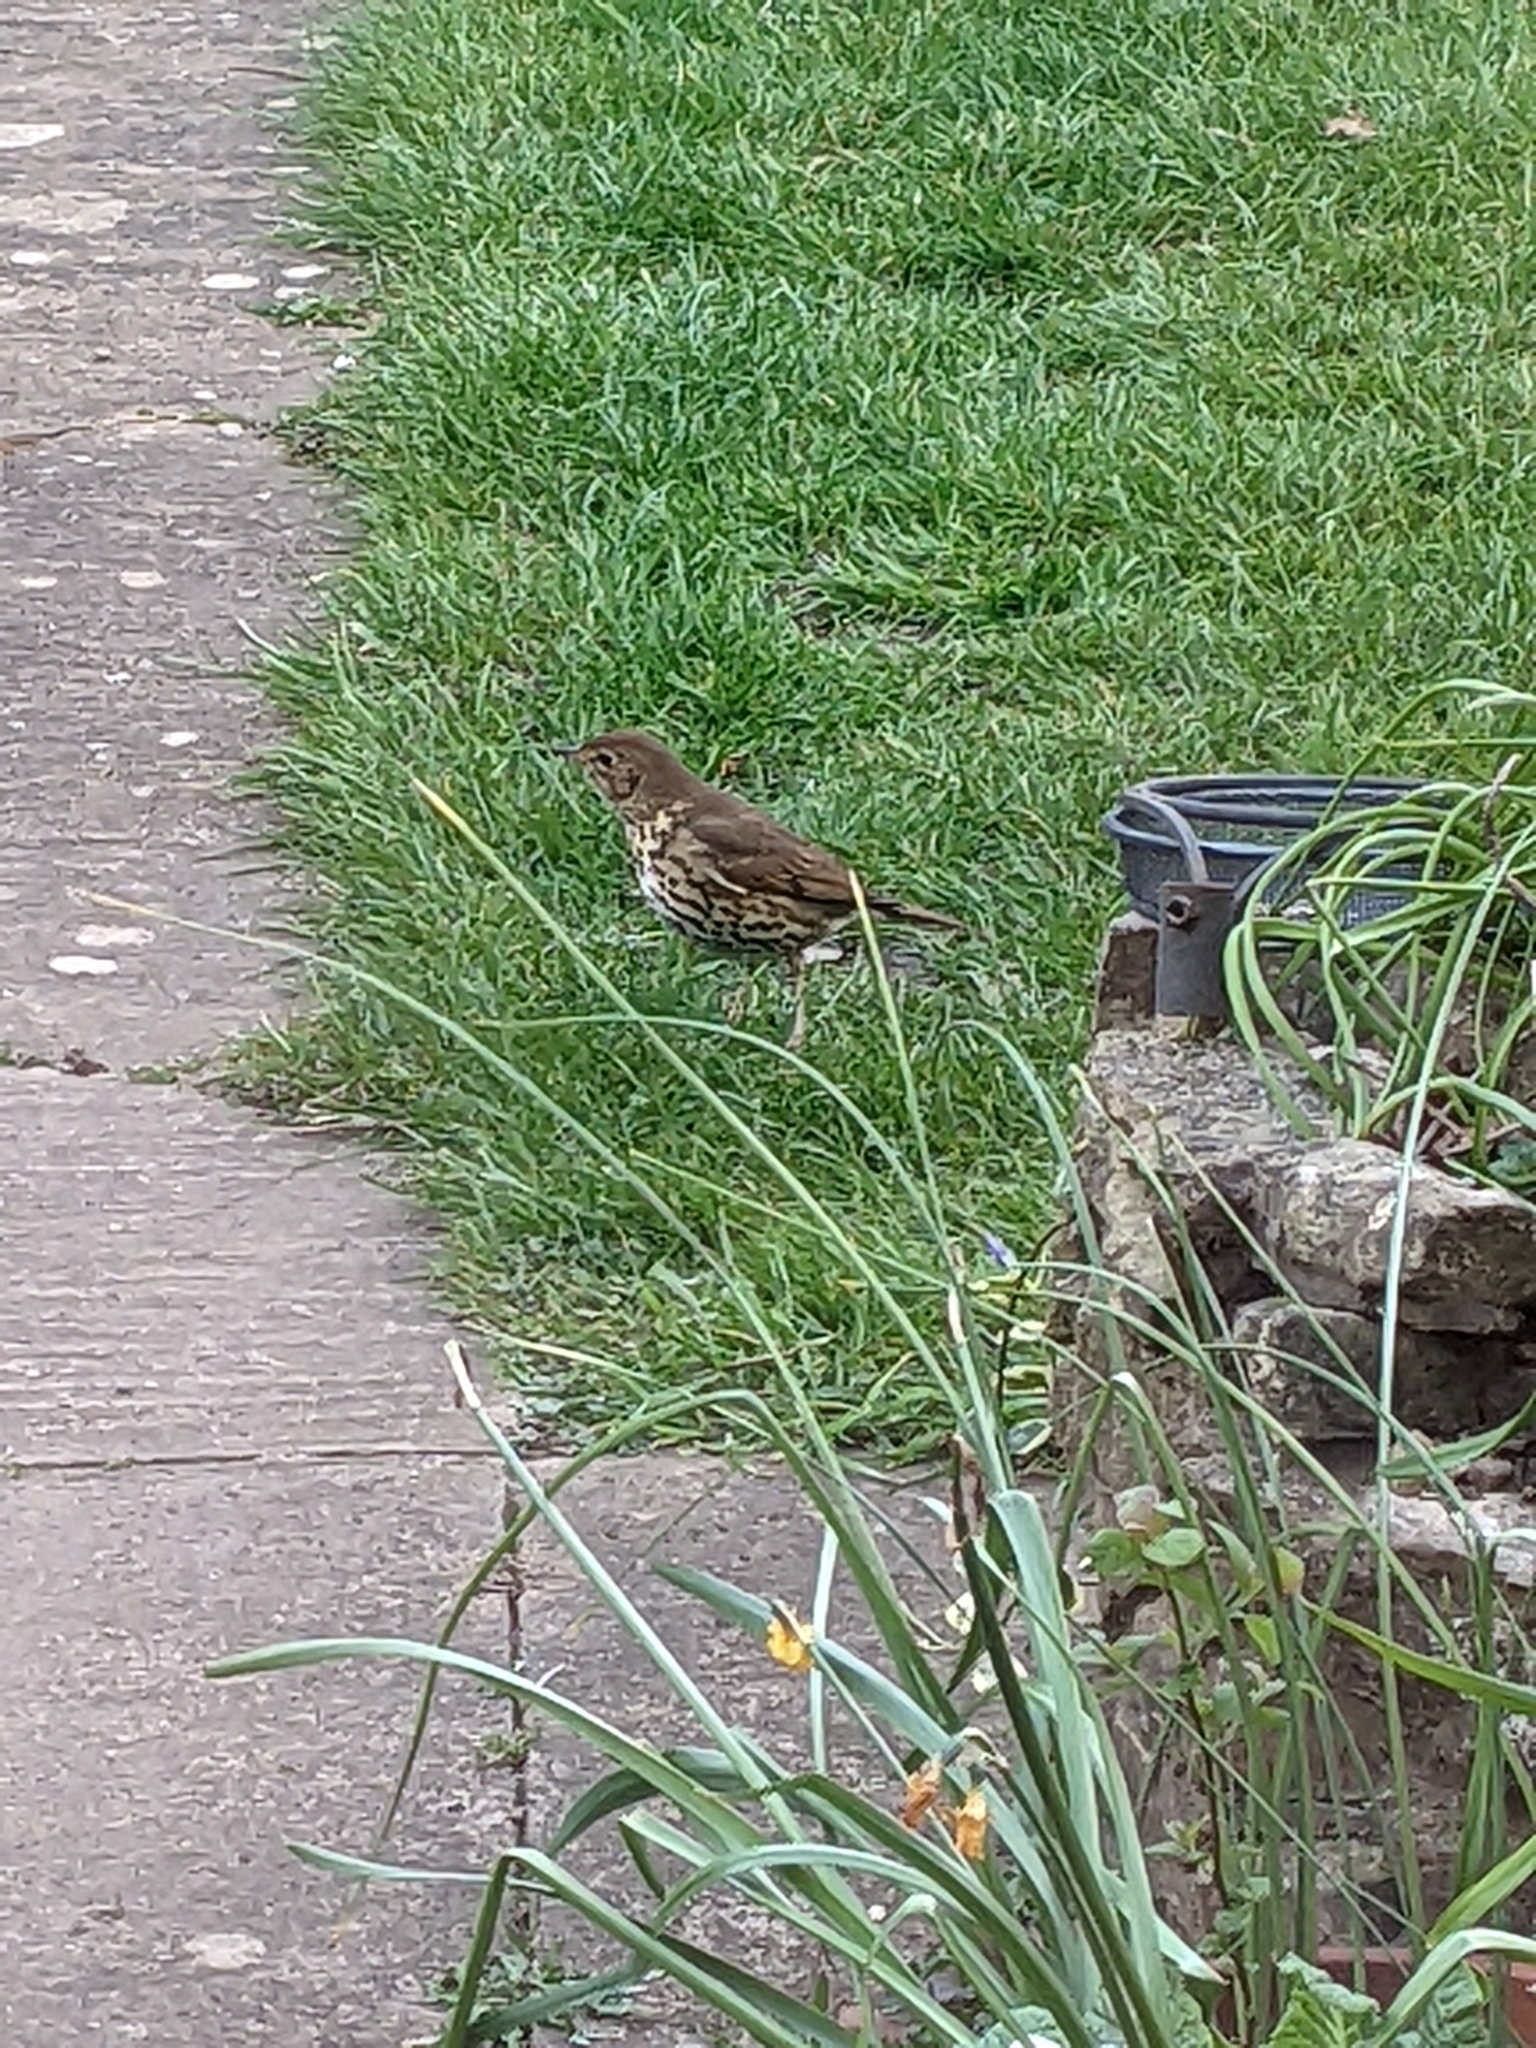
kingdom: Animalia
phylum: Chordata
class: Aves
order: Passeriformes
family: Turdidae
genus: Turdus
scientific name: Turdus philomelos
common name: Song thrush
